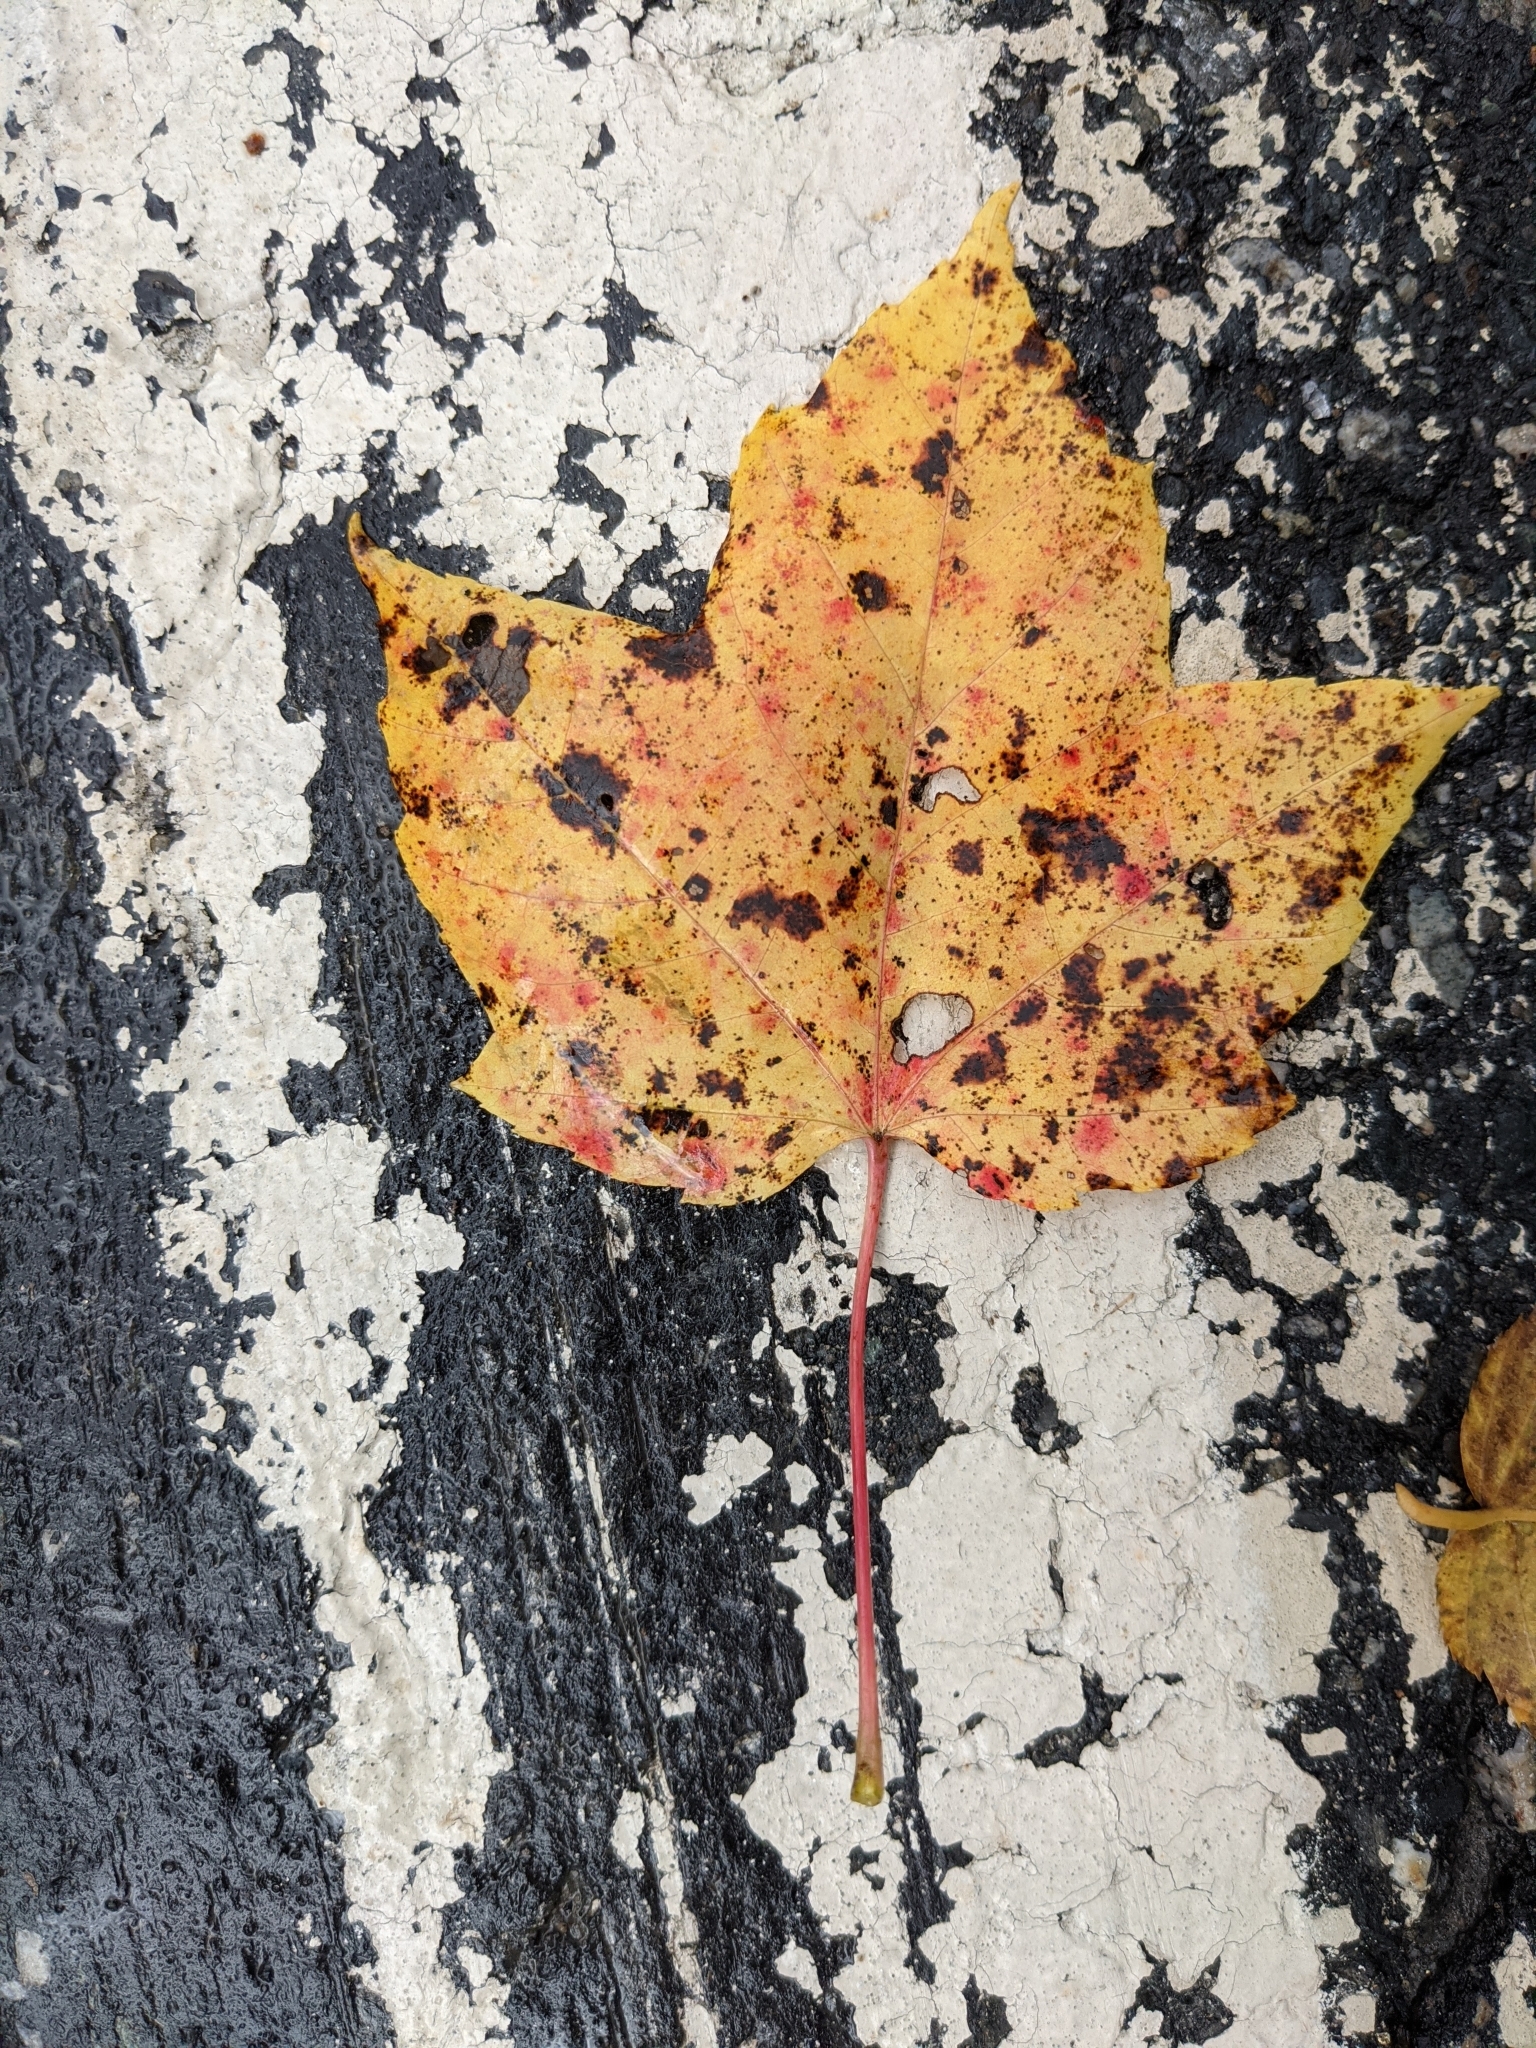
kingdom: Plantae
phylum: Tracheophyta
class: Magnoliopsida
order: Sapindales
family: Sapindaceae
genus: Acer
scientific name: Acer rubrum
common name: Red maple
